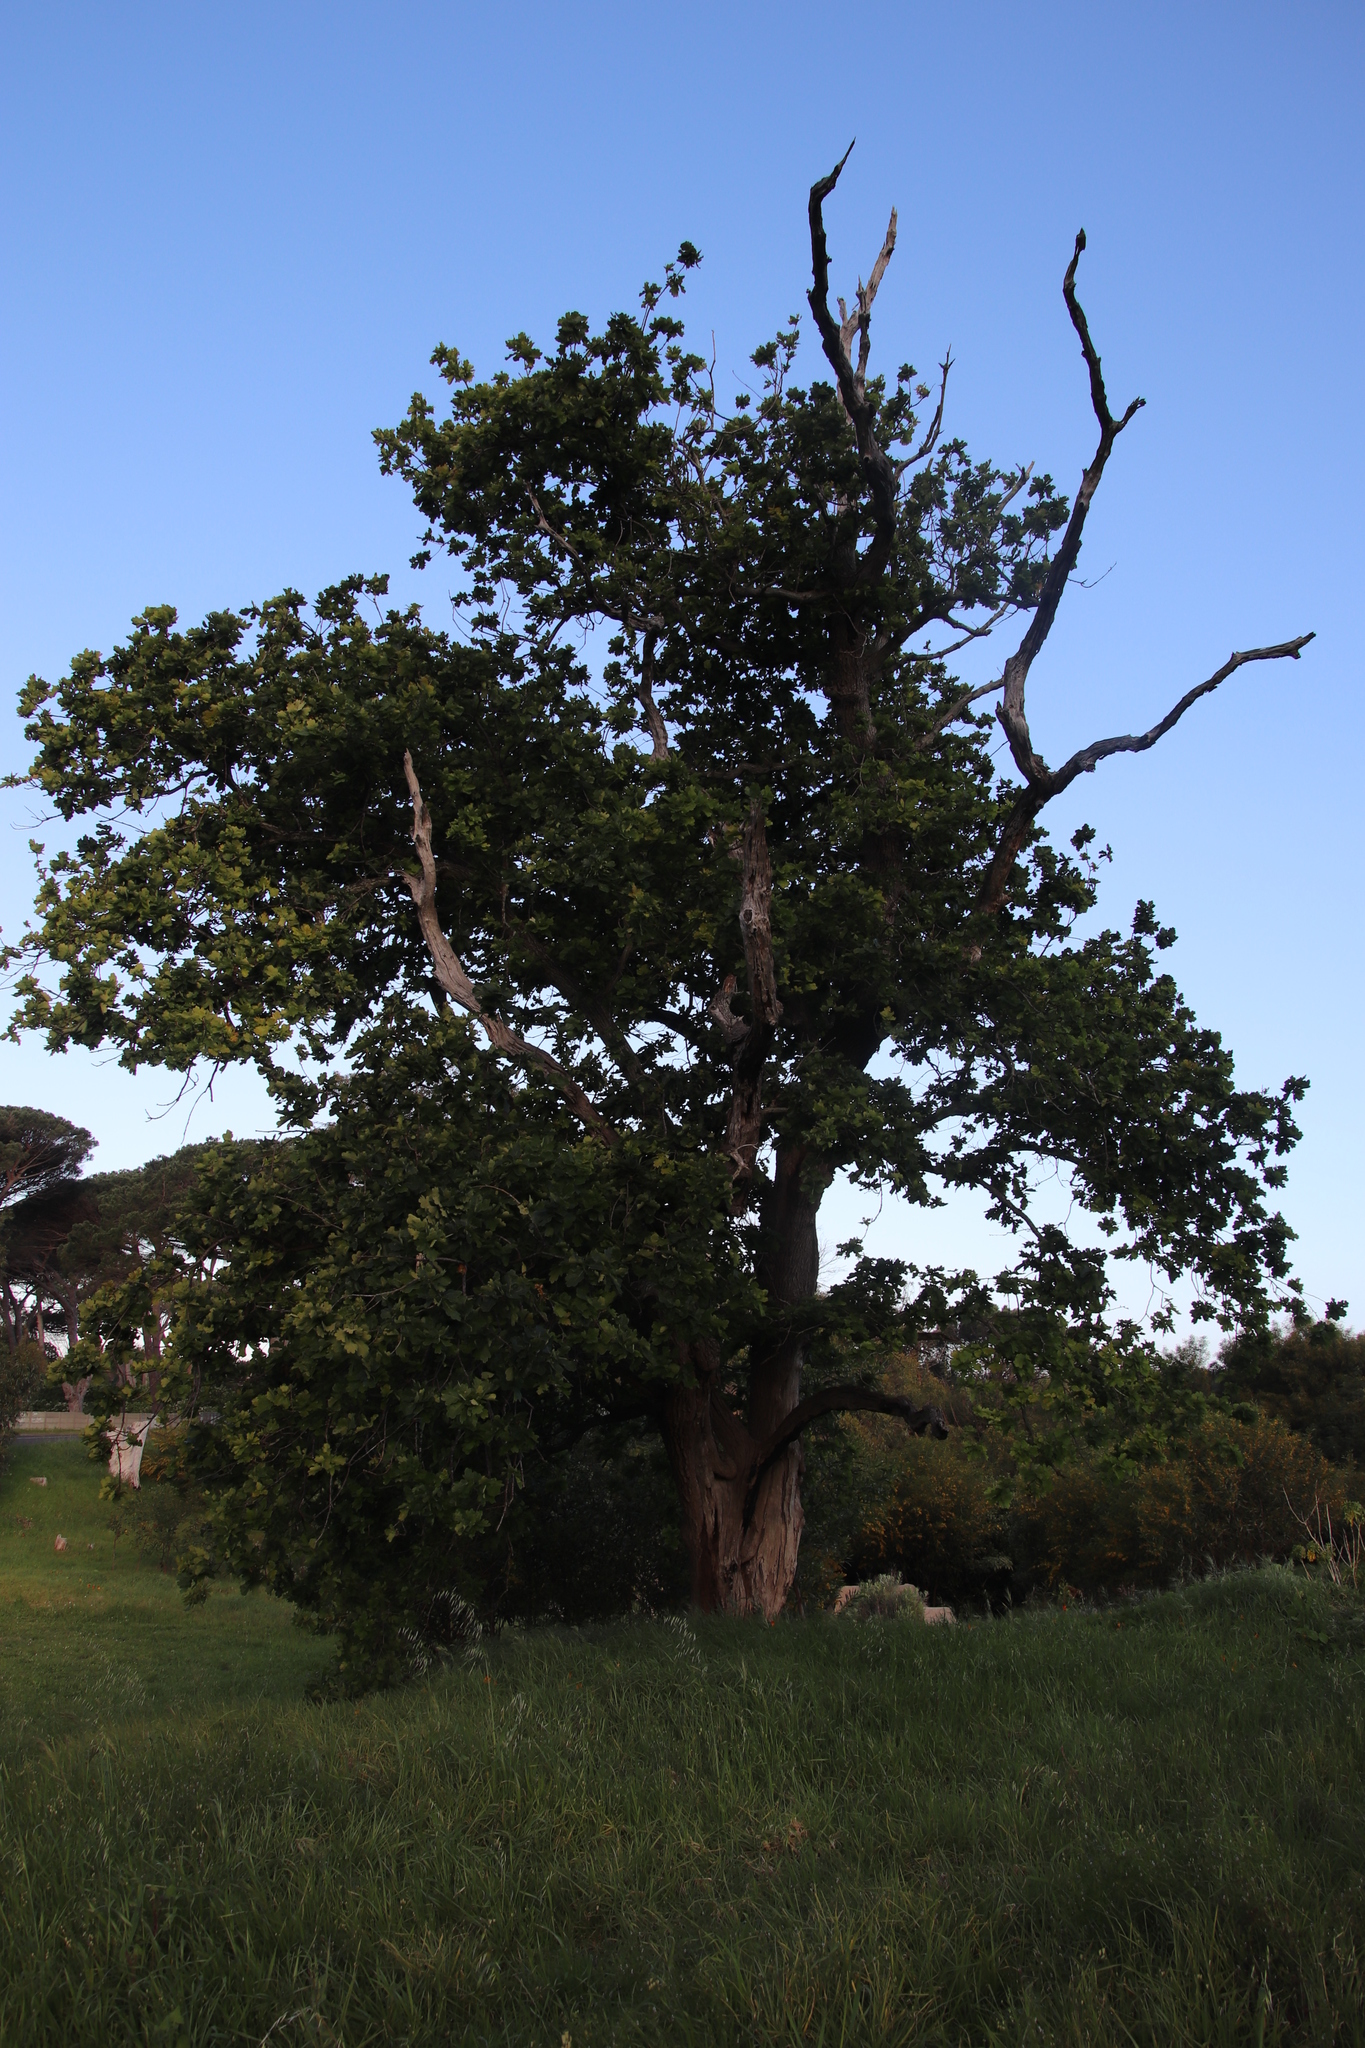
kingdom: Plantae
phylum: Tracheophyta
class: Magnoliopsida
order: Fagales
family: Fagaceae
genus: Quercus
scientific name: Quercus robur
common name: Pedunculate oak
